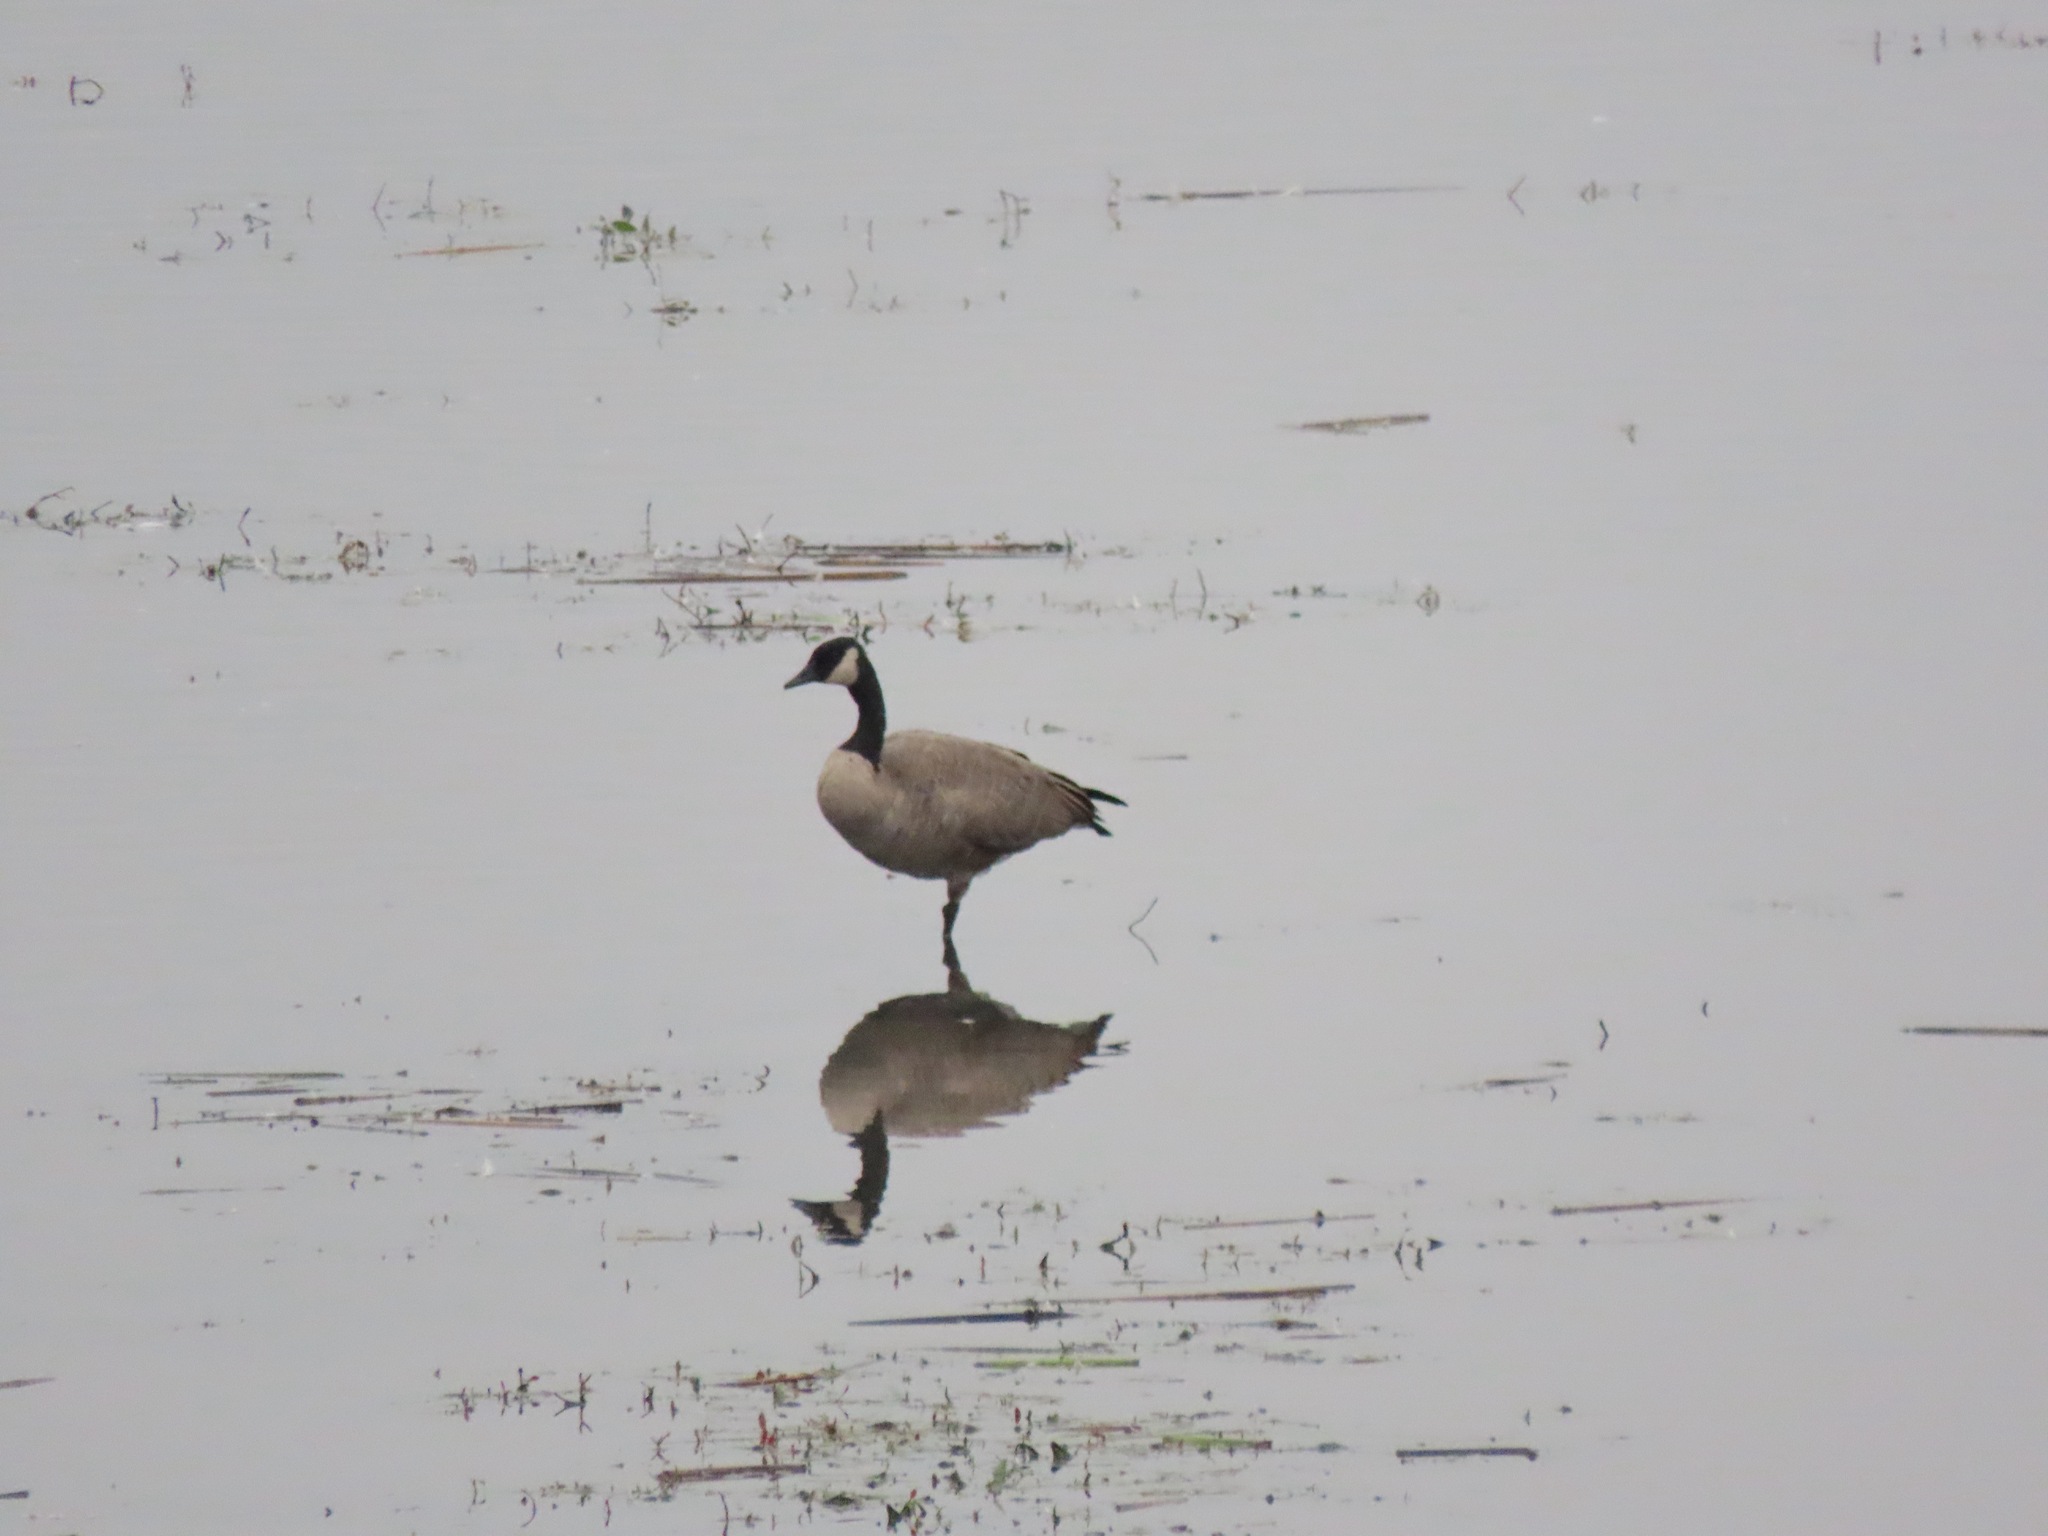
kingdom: Animalia
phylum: Chordata
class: Aves
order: Anseriformes
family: Anatidae
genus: Branta
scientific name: Branta canadensis
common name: Canada goose
